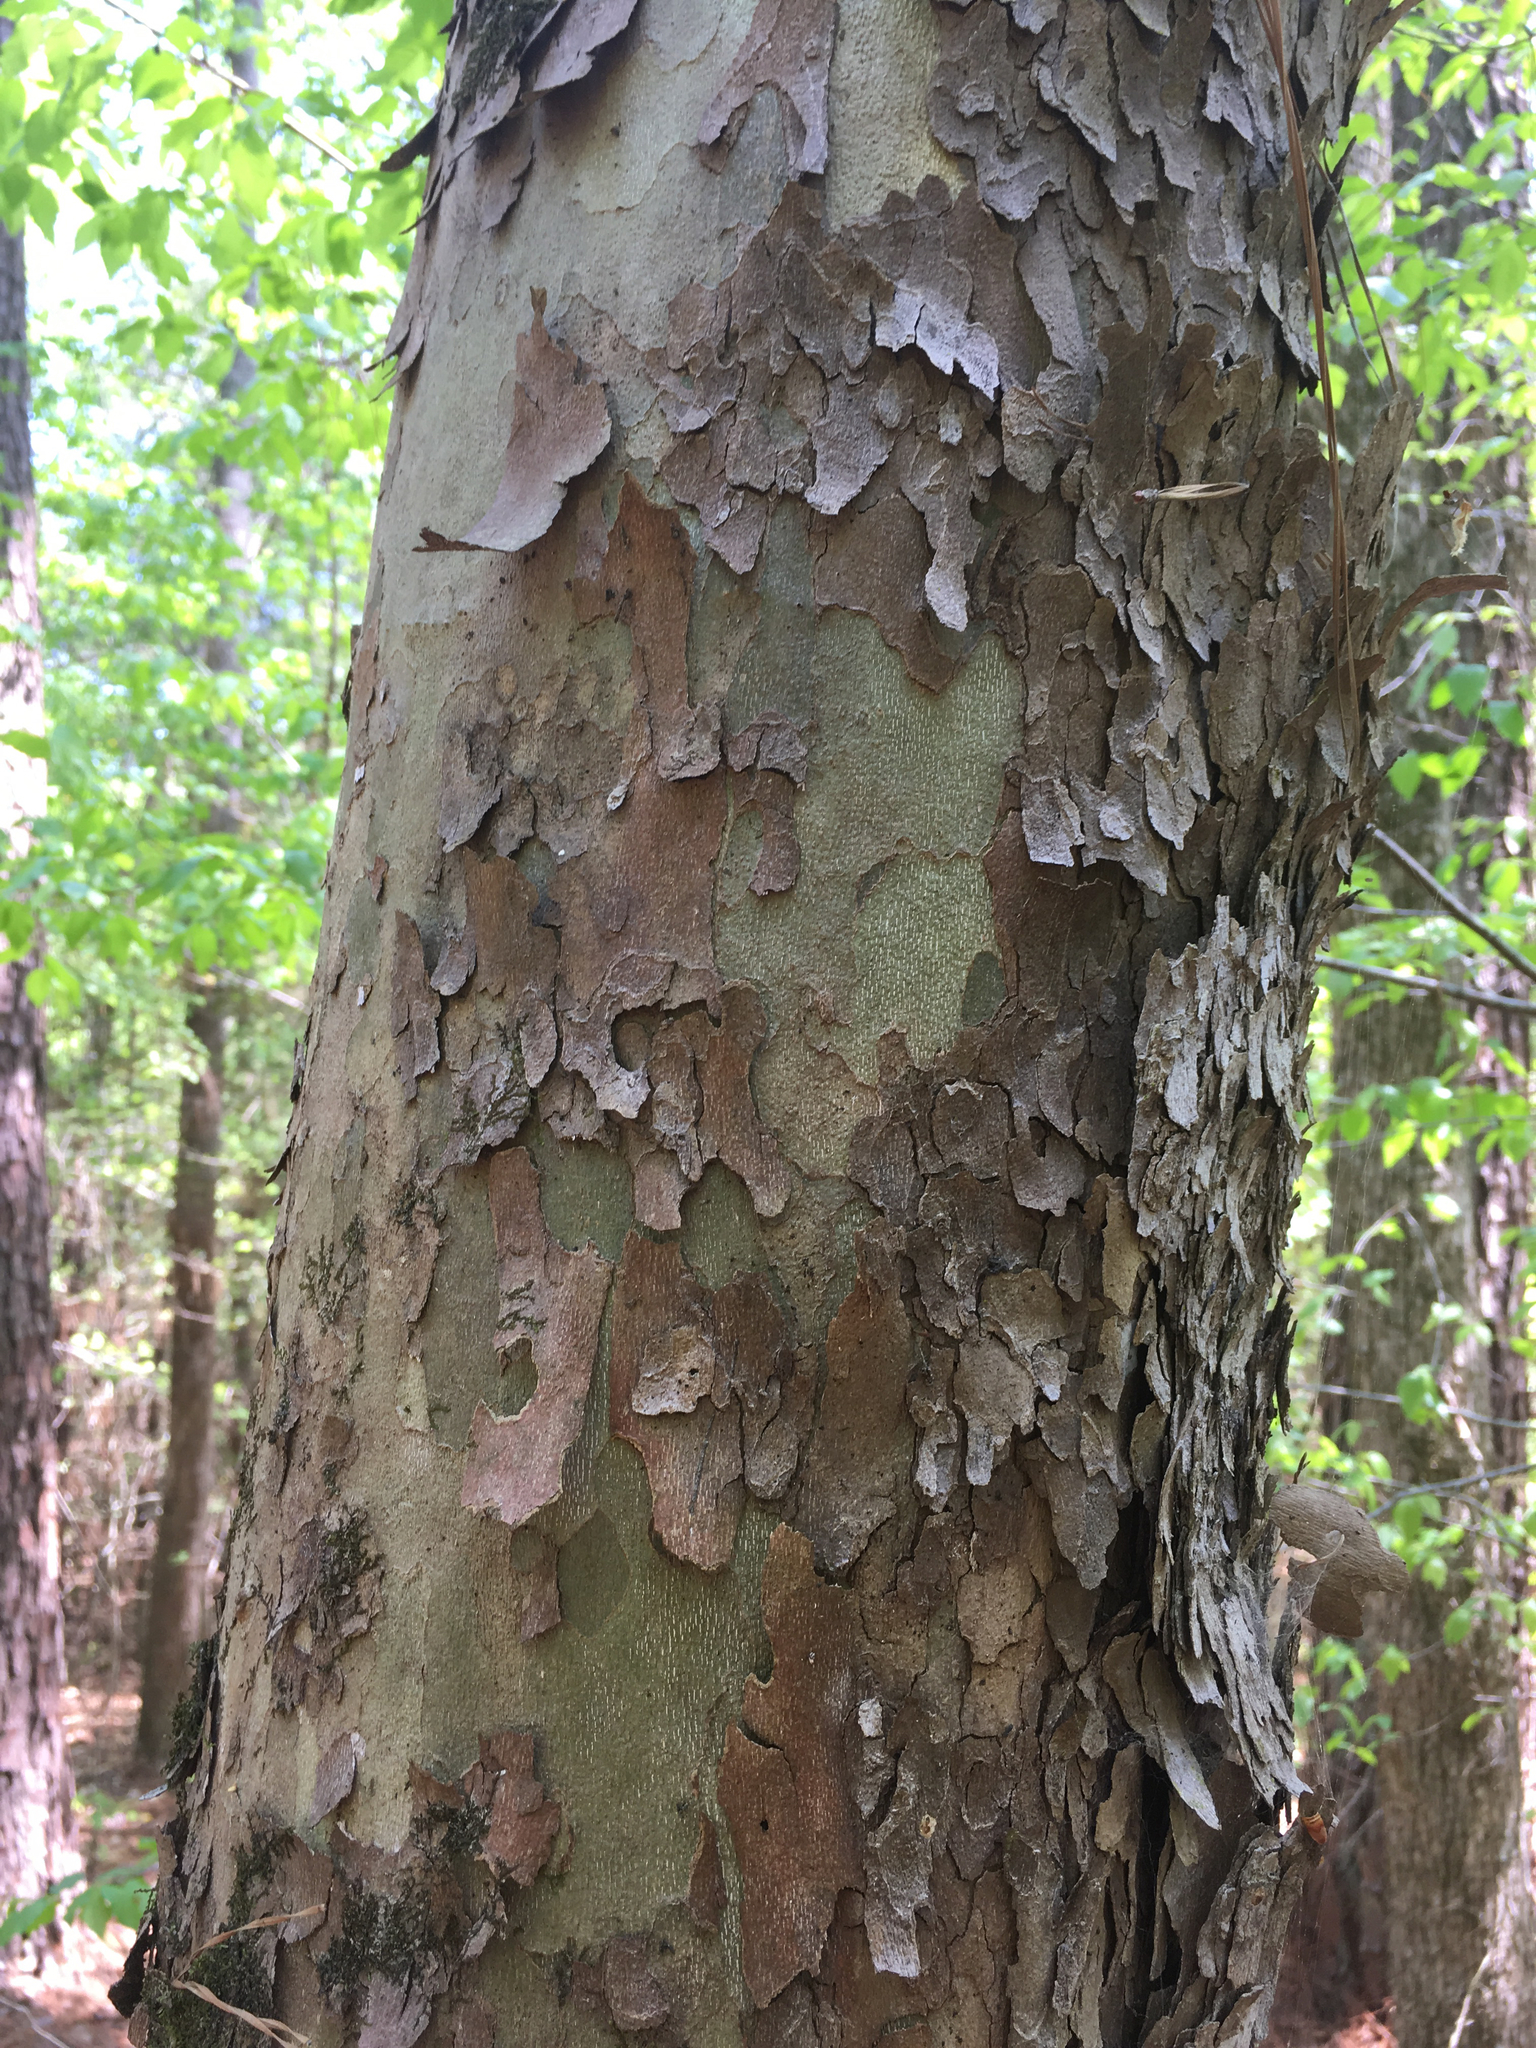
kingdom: Plantae
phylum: Tracheophyta
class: Magnoliopsida
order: Proteales
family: Platanaceae
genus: Platanus
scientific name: Platanus occidentalis
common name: American sycamore
